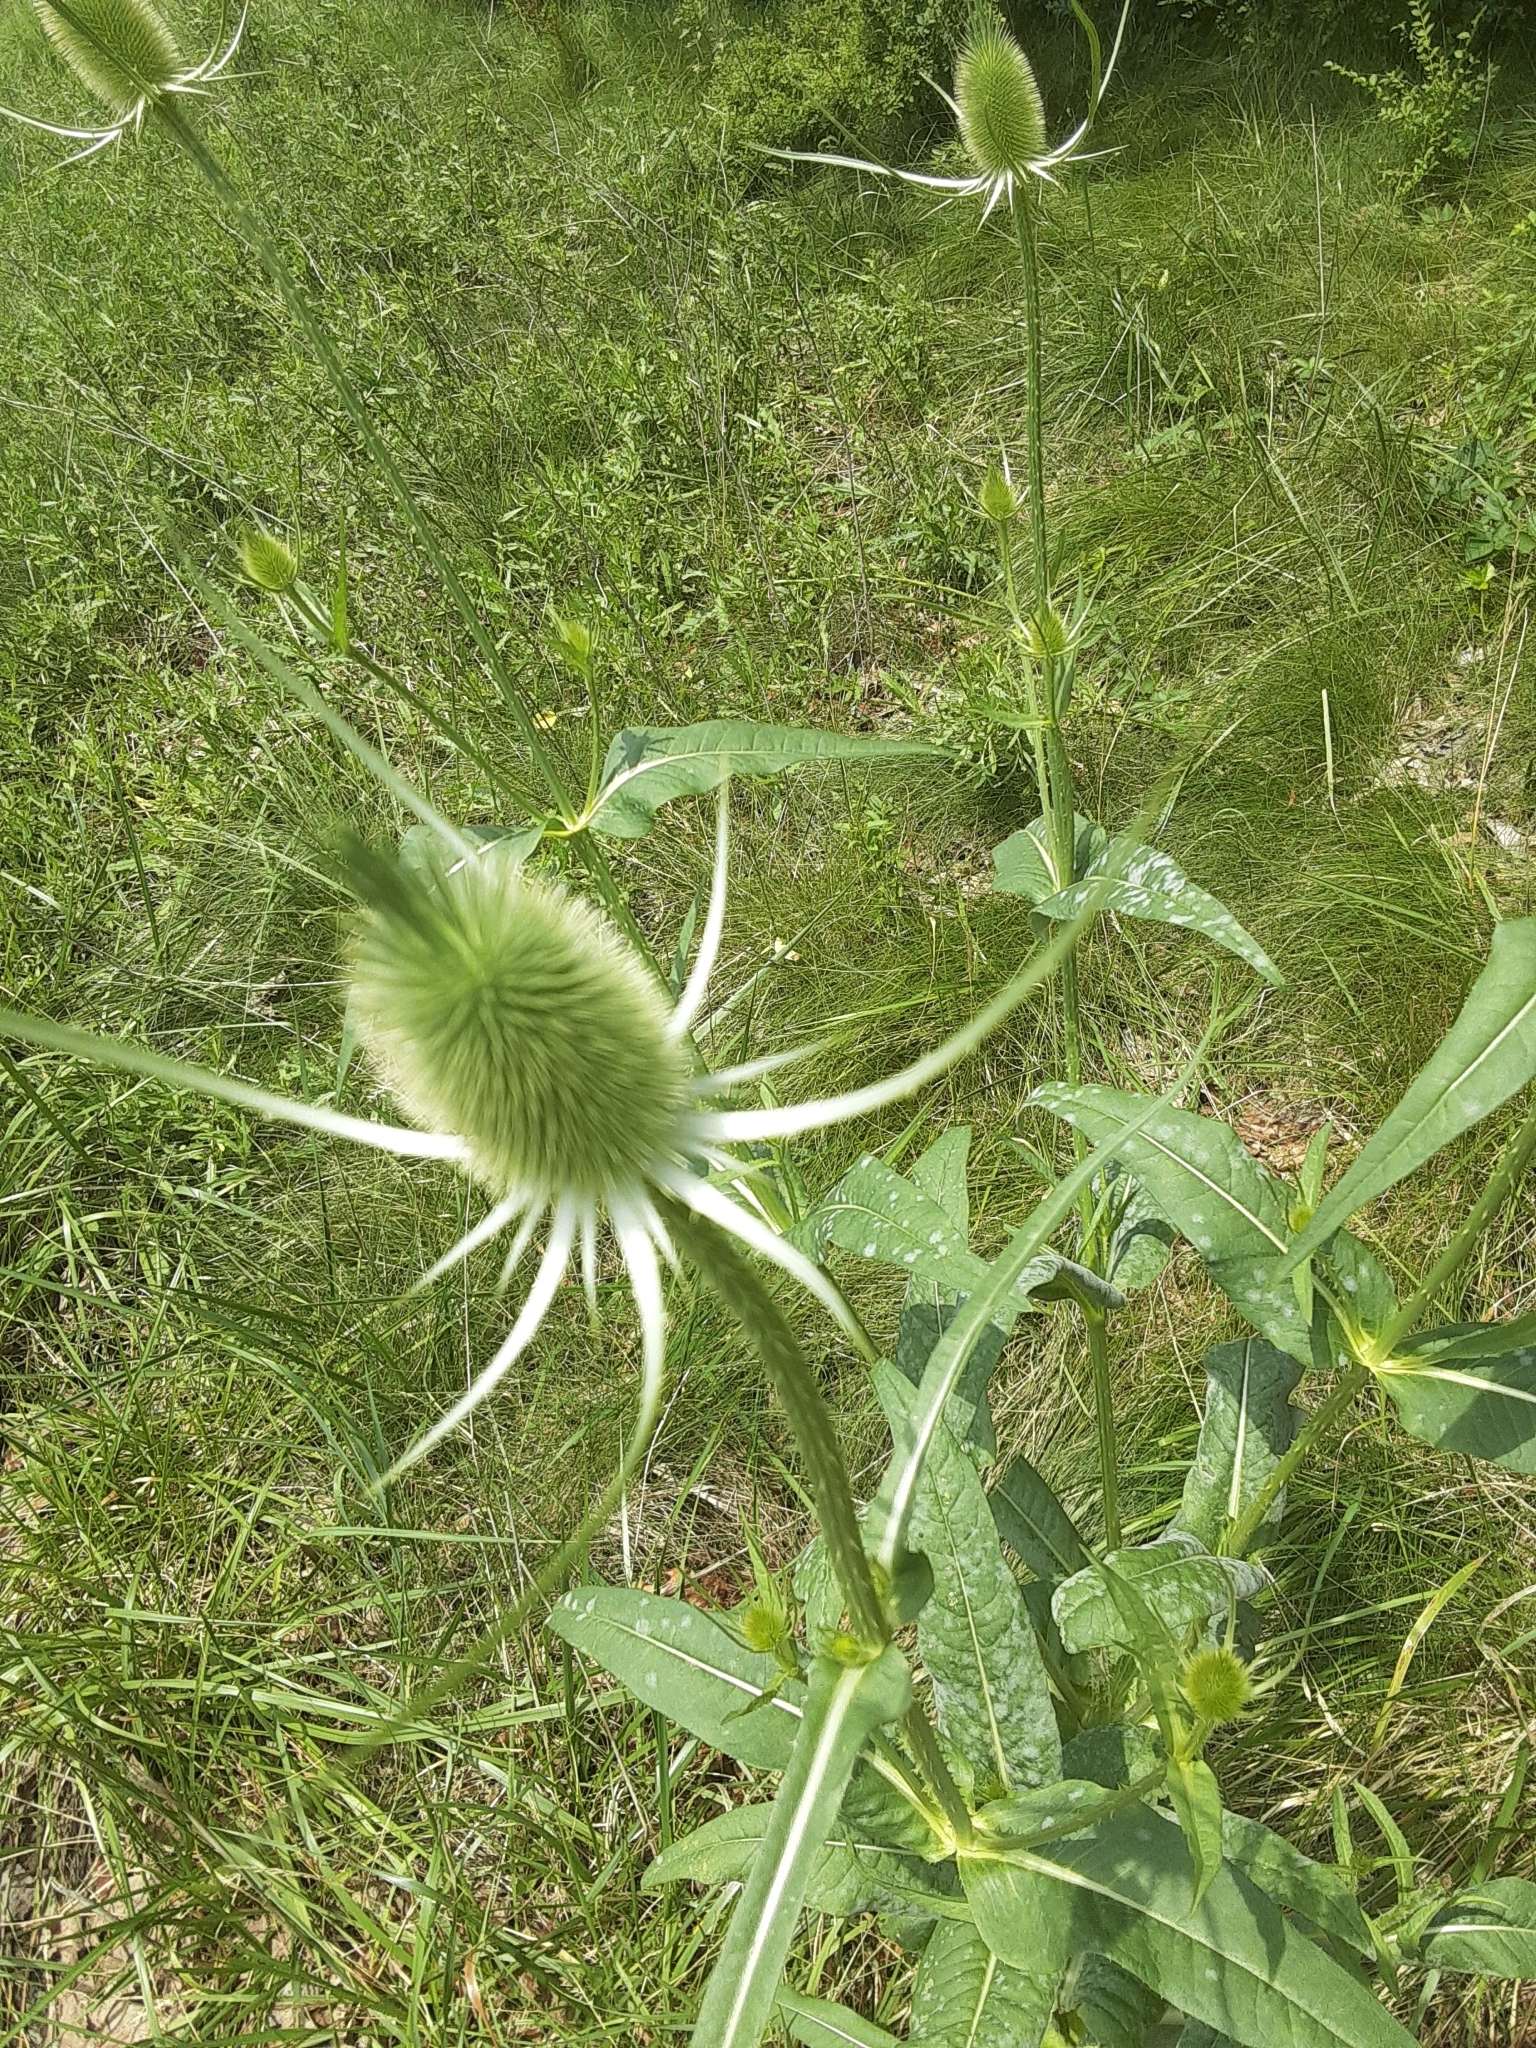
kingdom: Plantae
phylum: Tracheophyta
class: Magnoliopsida
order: Dipsacales
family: Caprifoliaceae
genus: Dipsacus
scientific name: Dipsacus fullonum
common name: Teasel
